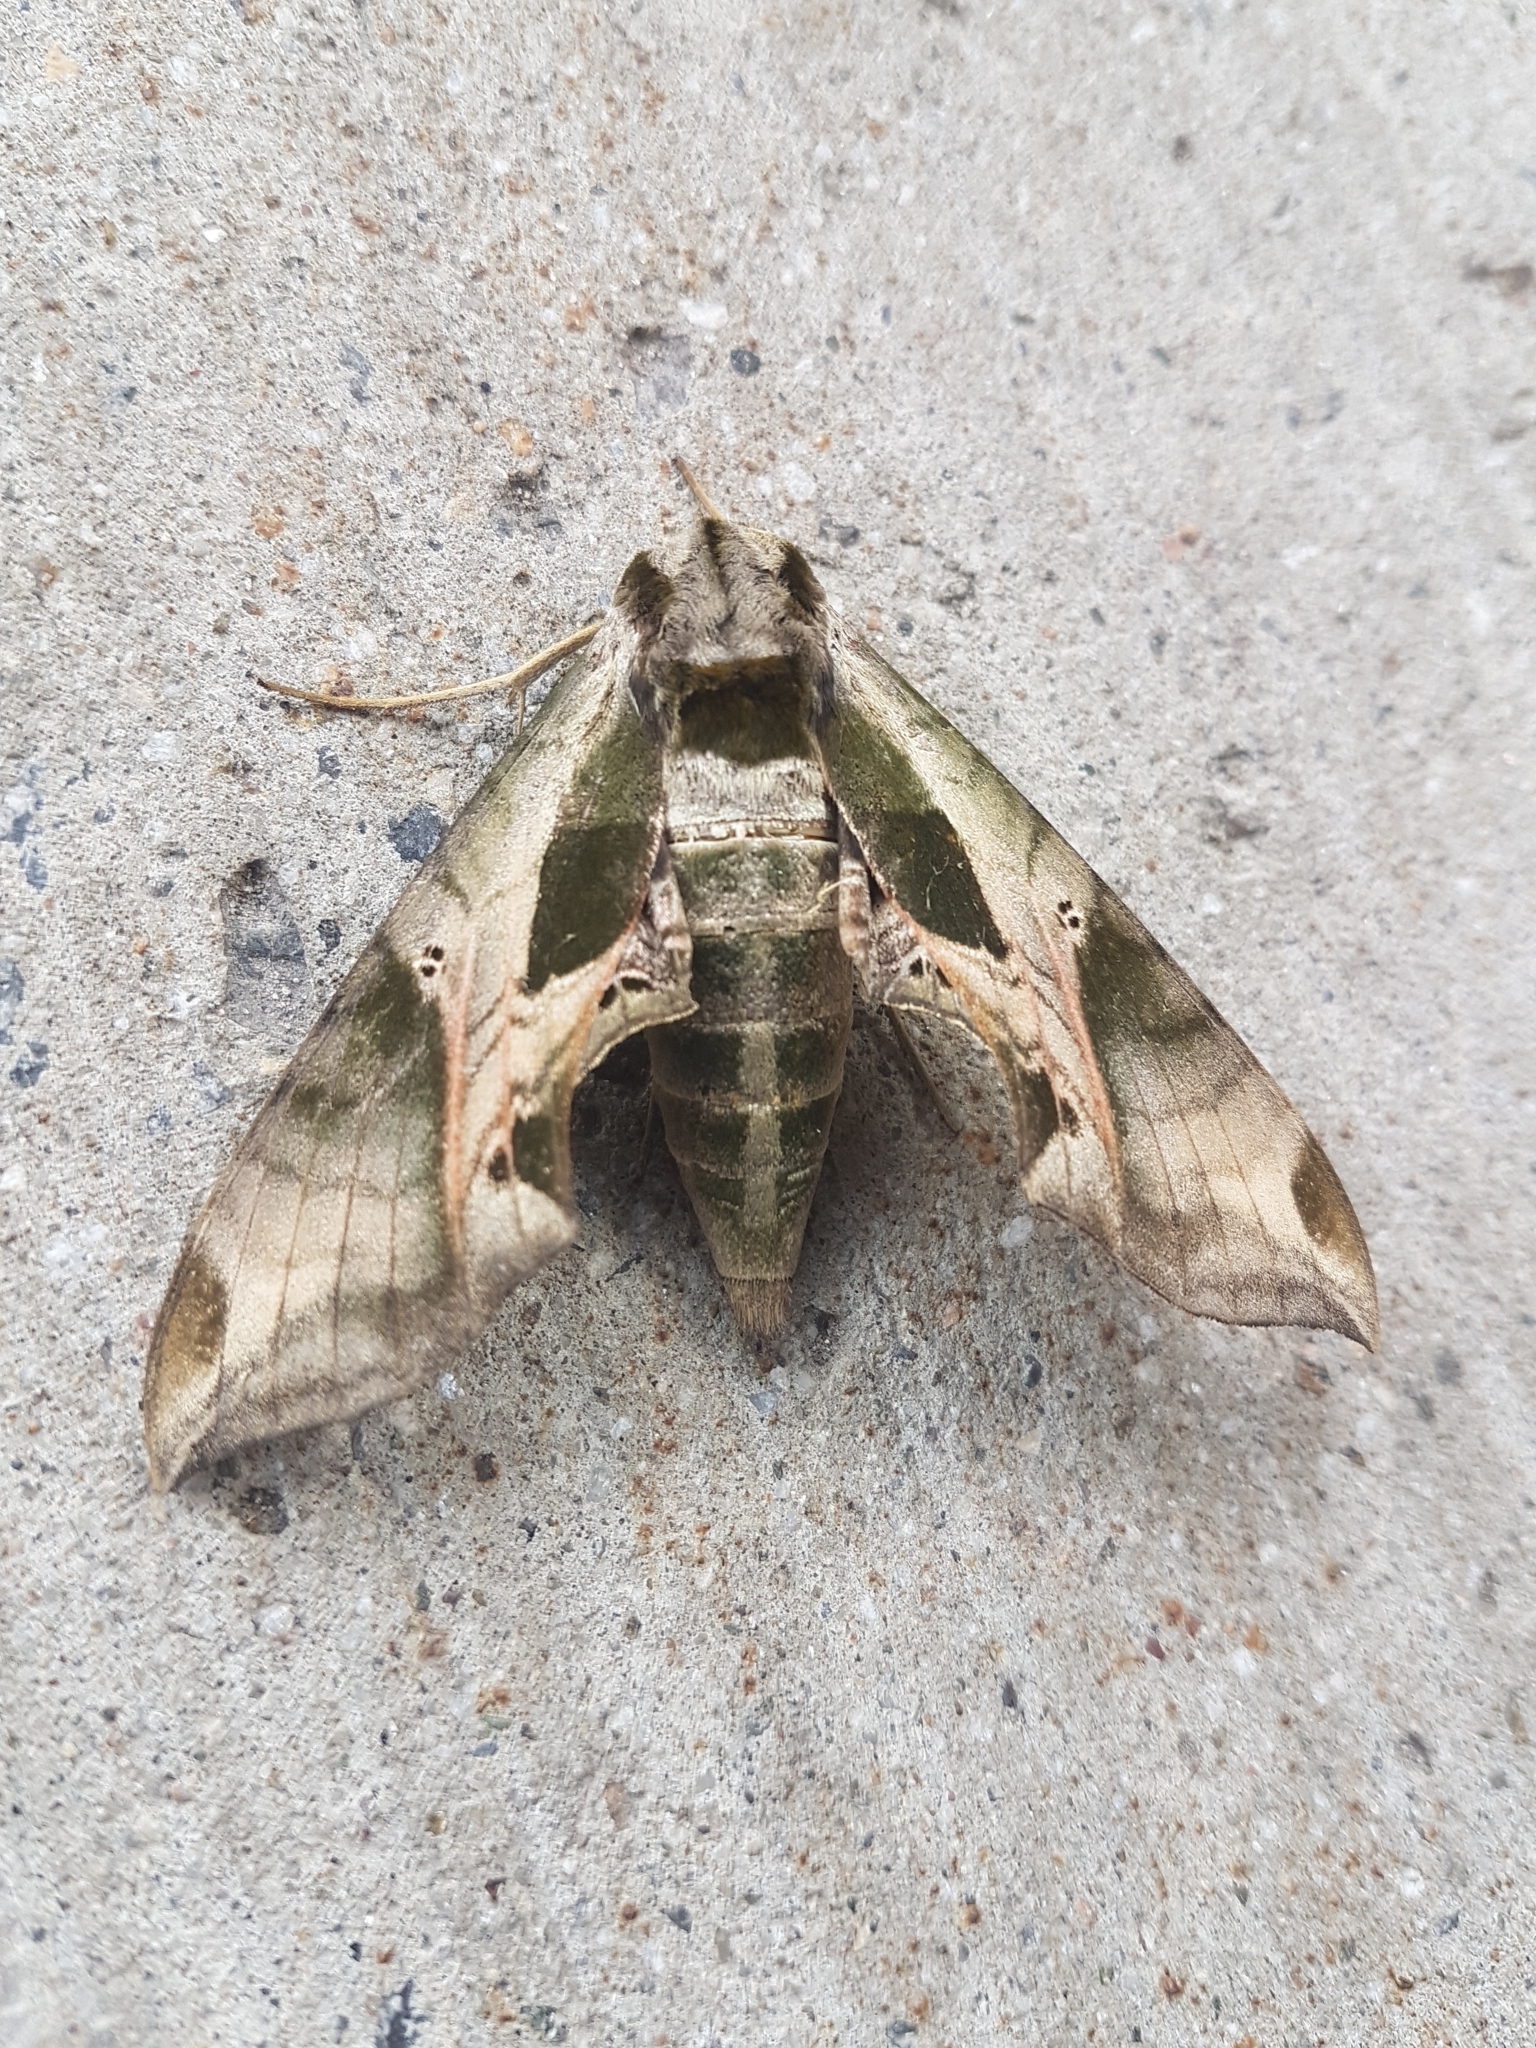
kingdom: Animalia
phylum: Arthropoda
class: Insecta
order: Lepidoptera
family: Sphingidae
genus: Eumorpha
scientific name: Eumorpha pandorus
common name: Pandora sphinx
